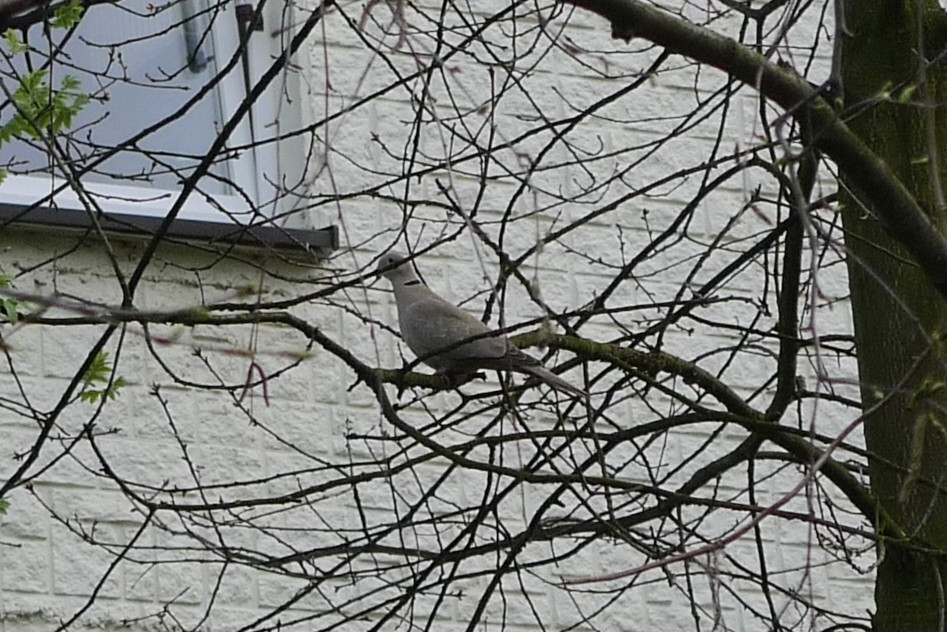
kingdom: Animalia
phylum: Chordata
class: Aves
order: Columbiformes
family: Columbidae
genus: Streptopelia
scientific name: Streptopelia decaocto
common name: Eurasian collared dove
